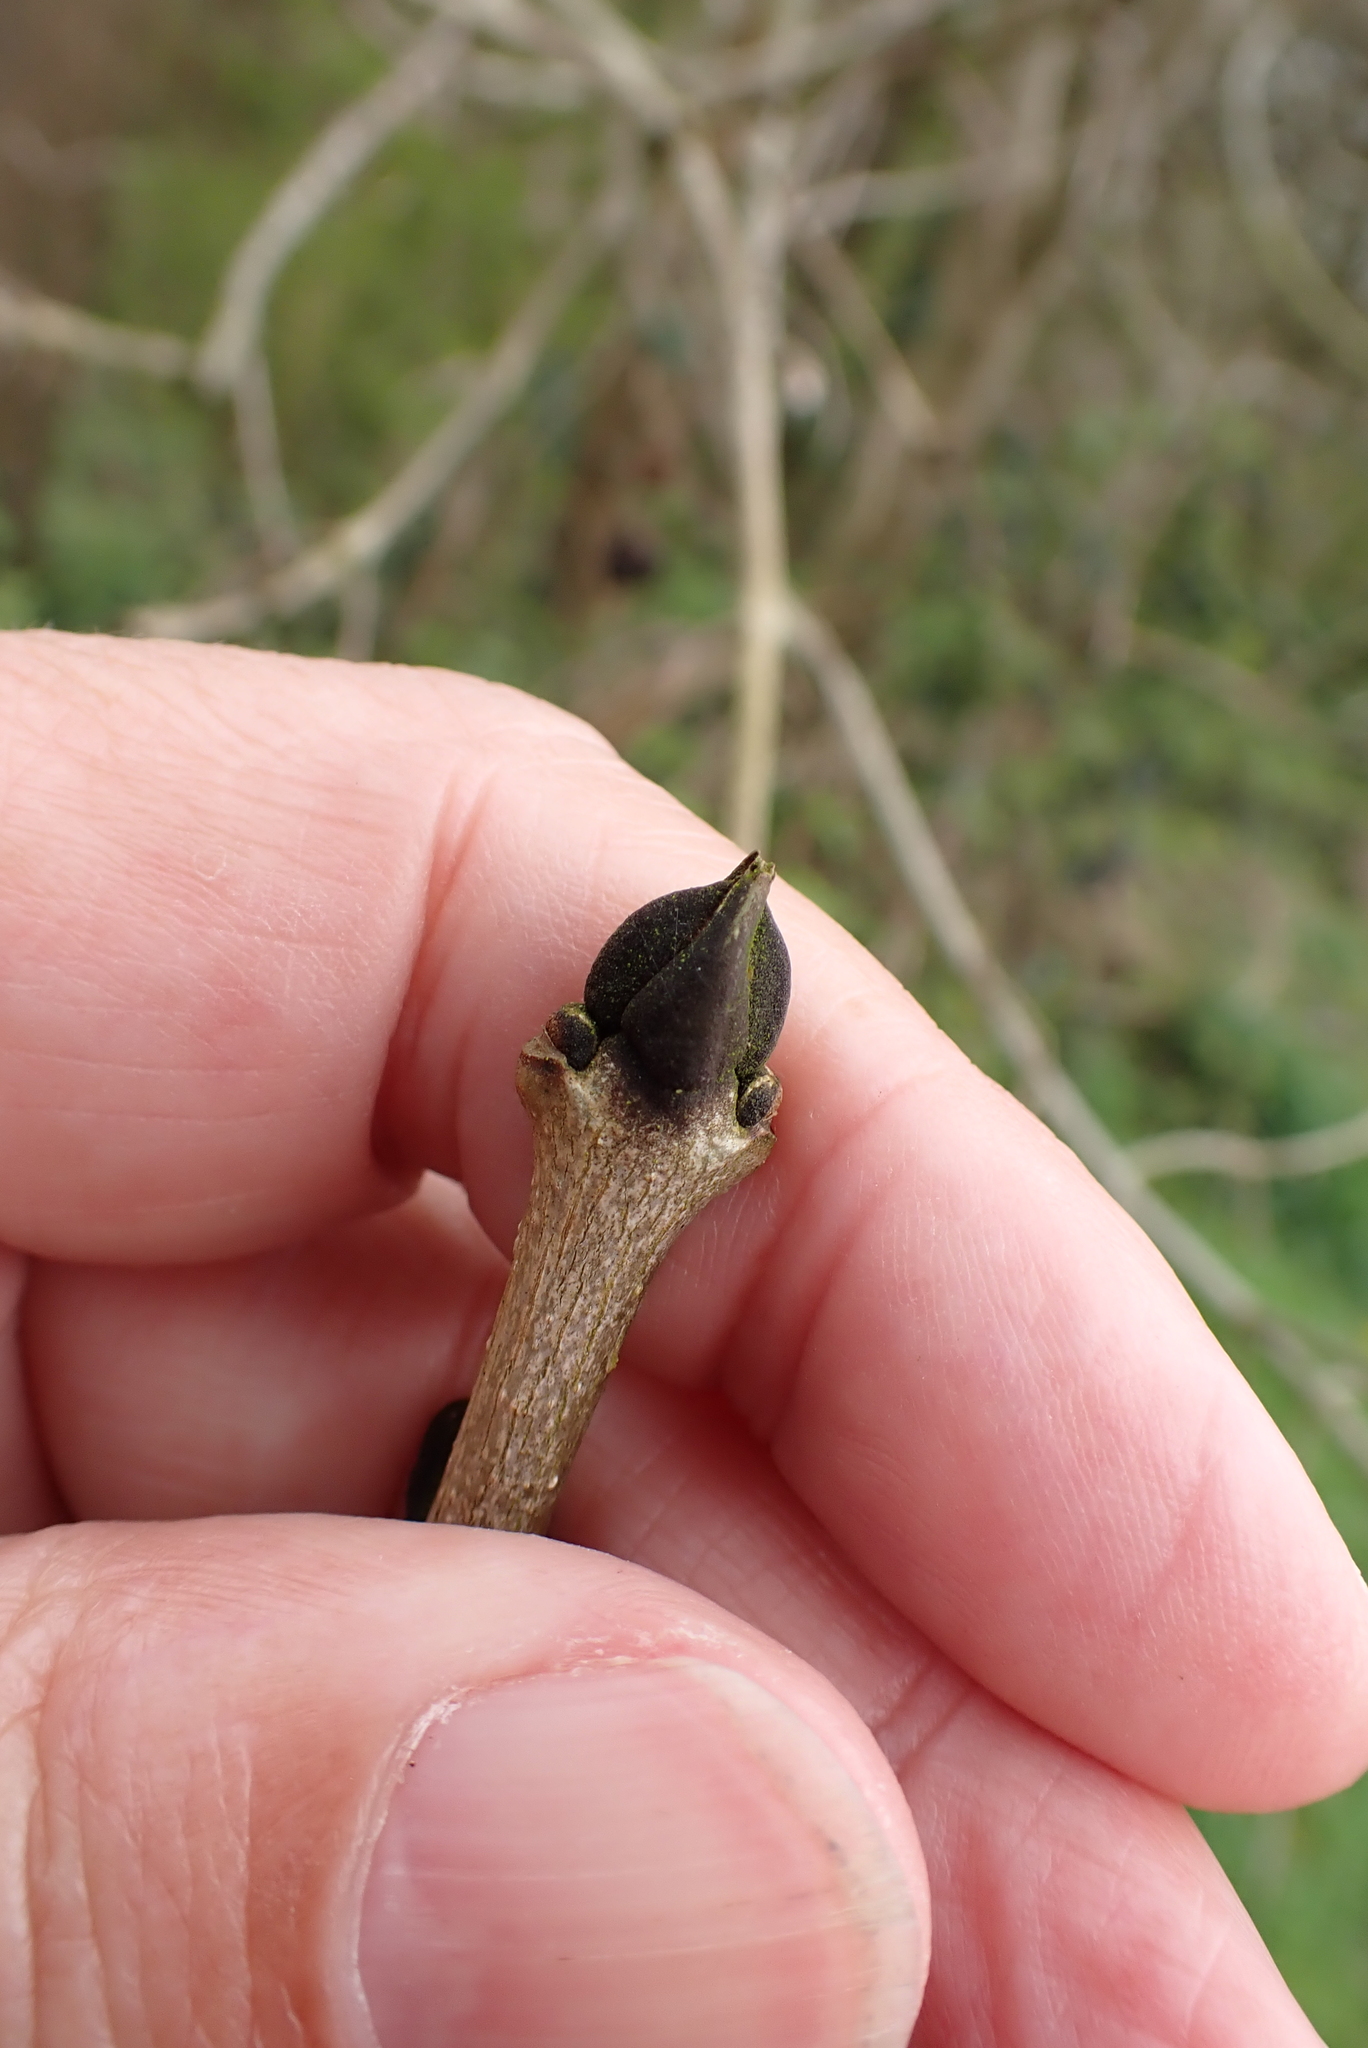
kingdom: Plantae
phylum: Tracheophyta
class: Magnoliopsida
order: Lamiales
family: Oleaceae
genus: Fraxinus
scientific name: Fraxinus excelsior
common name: European ash
